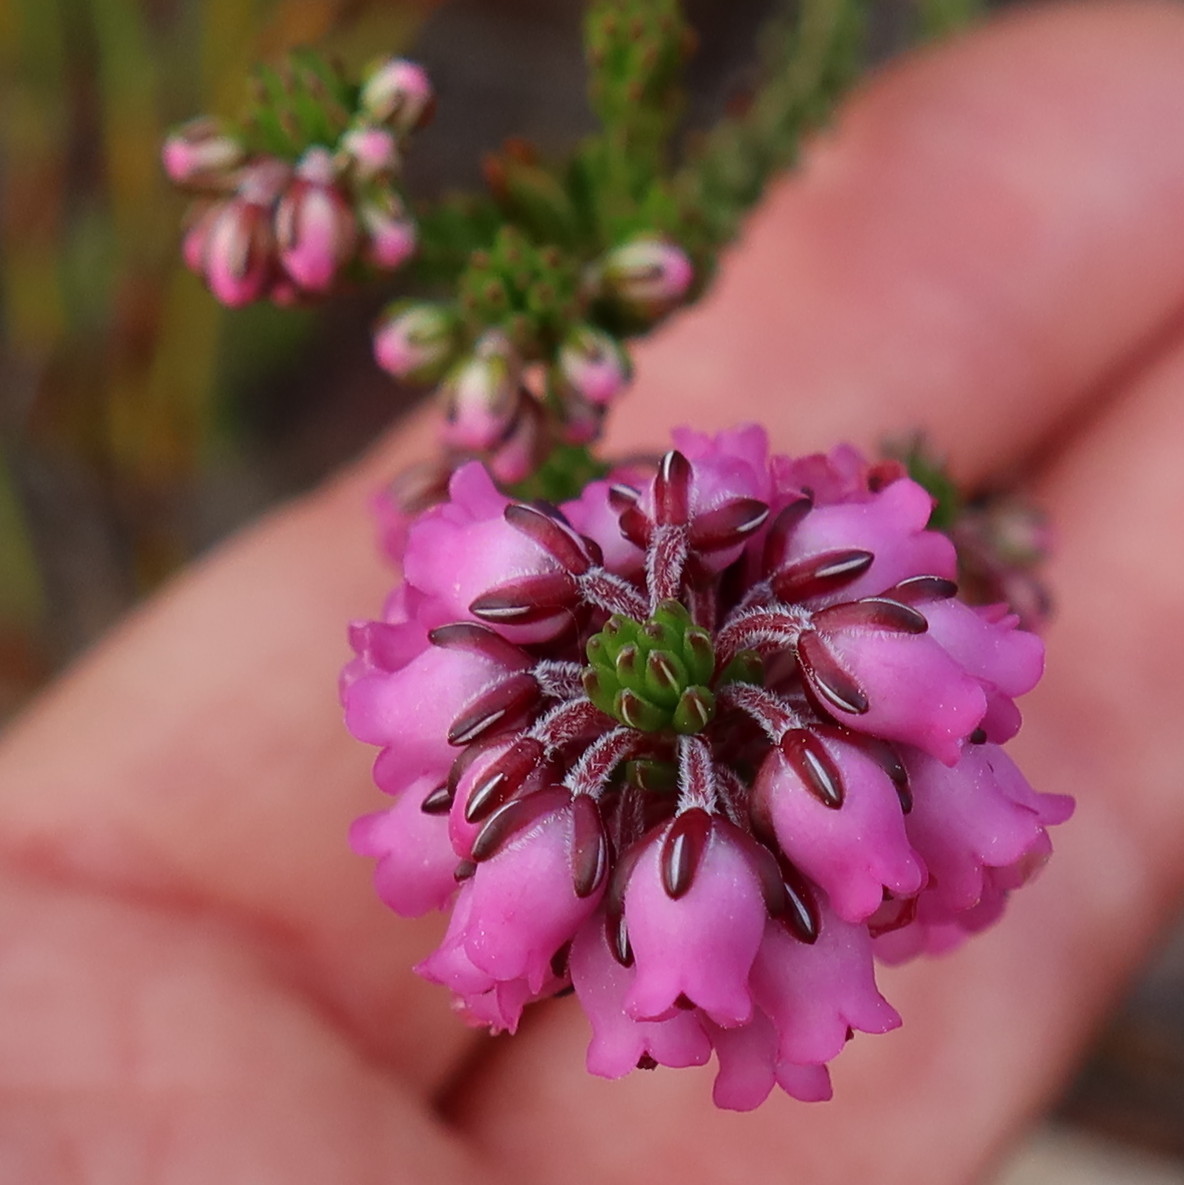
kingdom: Plantae
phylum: Tracheophyta
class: Magnoliopsida
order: Ericales
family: Ericaceae
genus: Erica
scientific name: Erica pulchella
